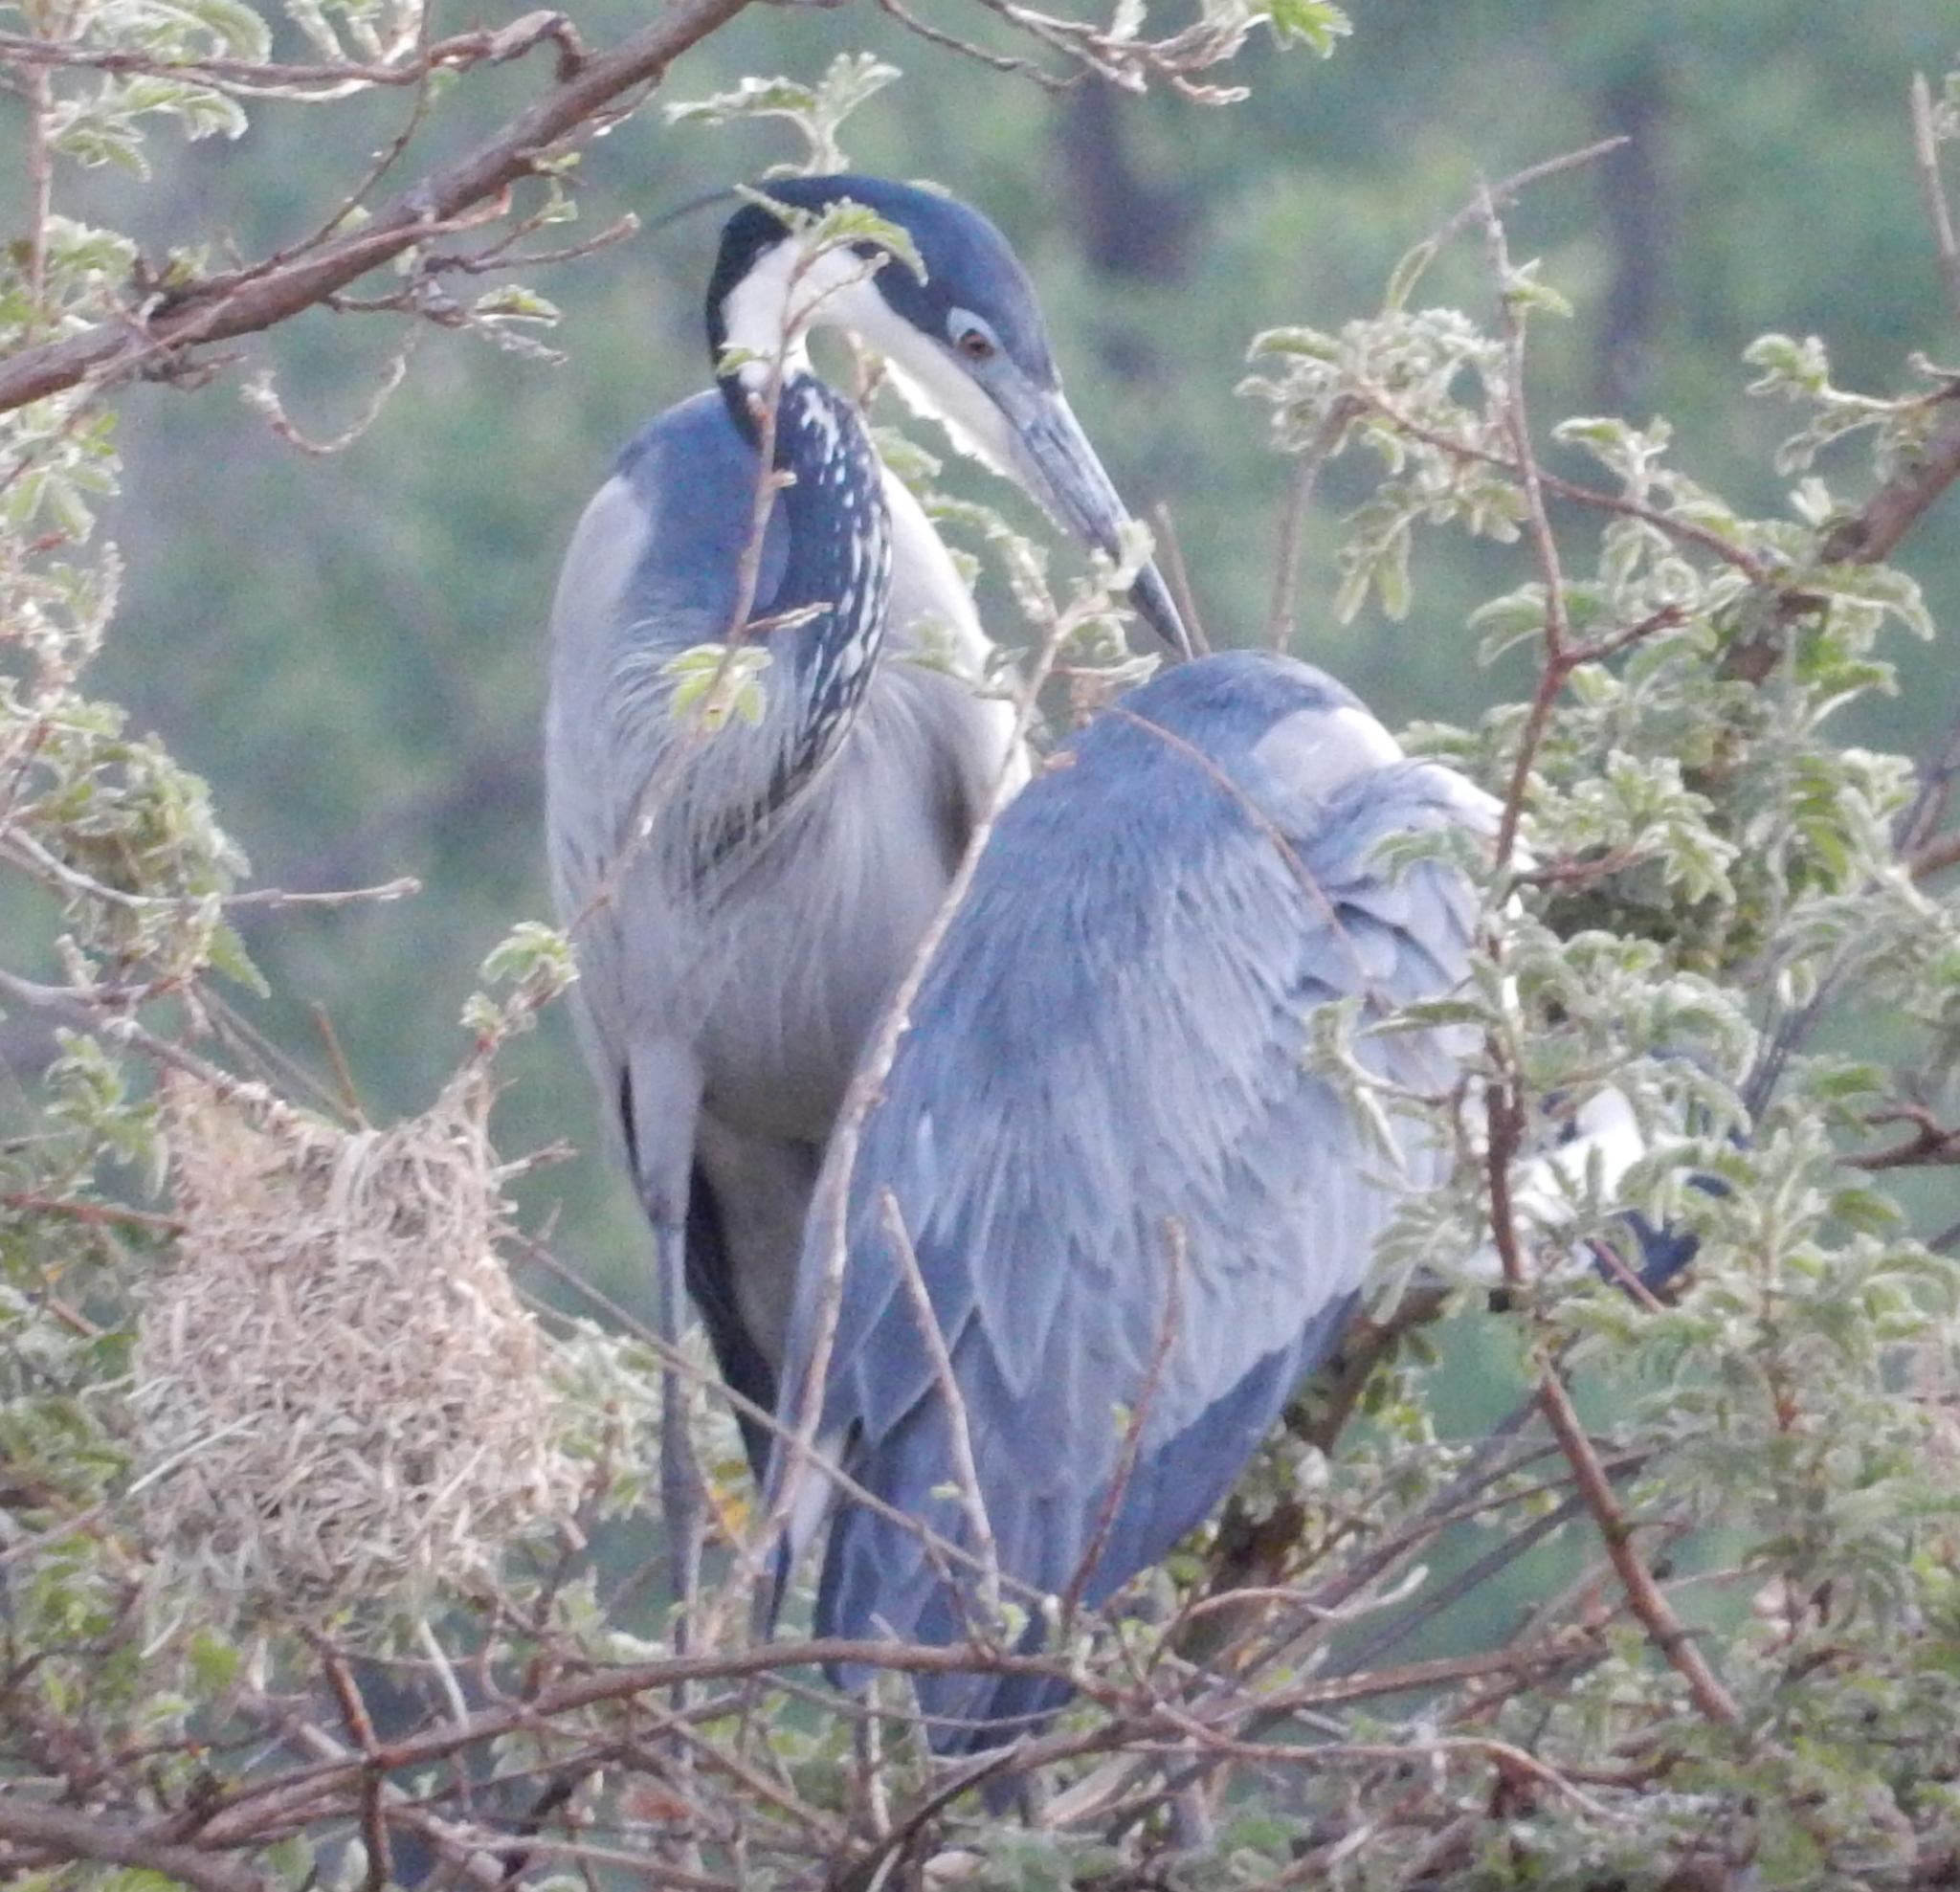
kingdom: Animalia
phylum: Chordata
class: Aves
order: Pelecaniformes
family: Ardeidae
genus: Ardea
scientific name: Ardea melanocephala
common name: Black-headed heron
